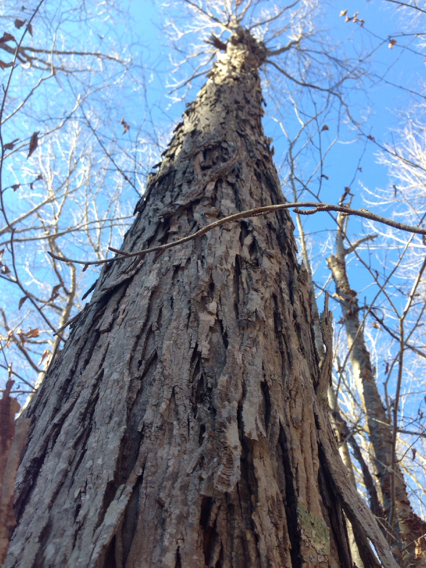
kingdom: Plantae
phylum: Tracheophyta
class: Magnoliopsida
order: Fagales
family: Juglandaceae
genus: Carya
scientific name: Carya ovata
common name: Shagbark hickory
